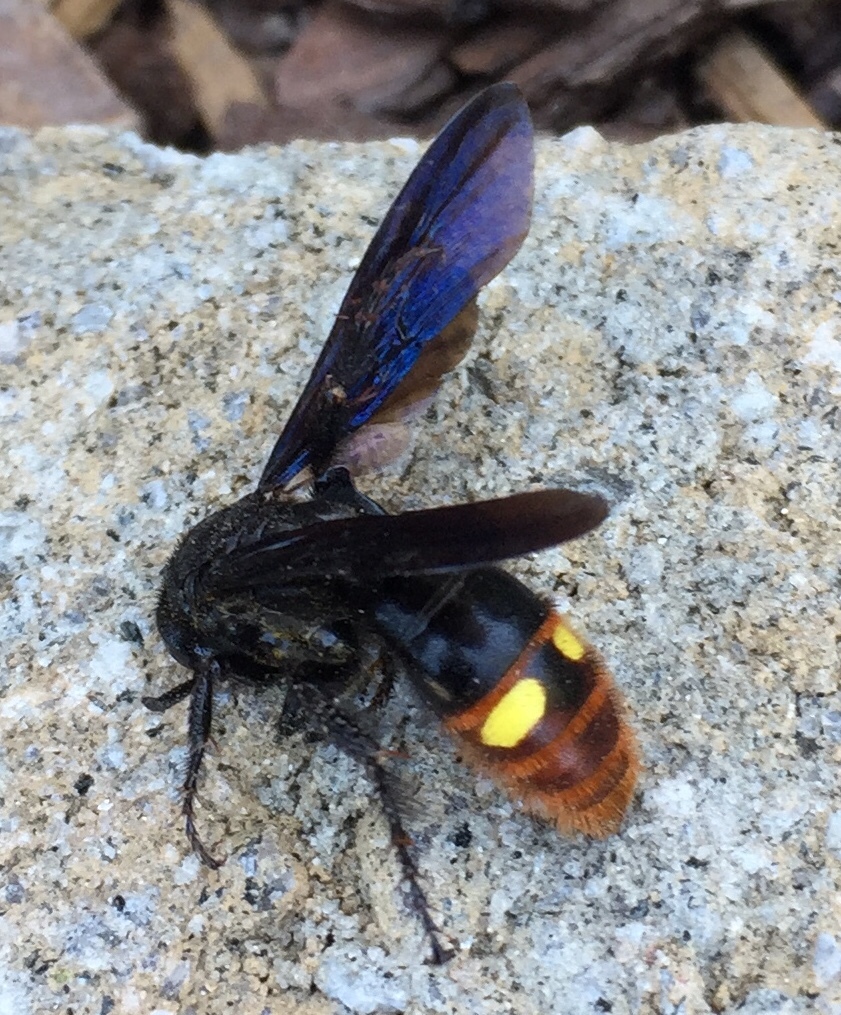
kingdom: Animalia
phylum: Arthropoda
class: Insecta
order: Hymenoptera
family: Scoliidae
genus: Scolia
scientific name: Scolia dubia
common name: Blue-winged scoliid wasp
